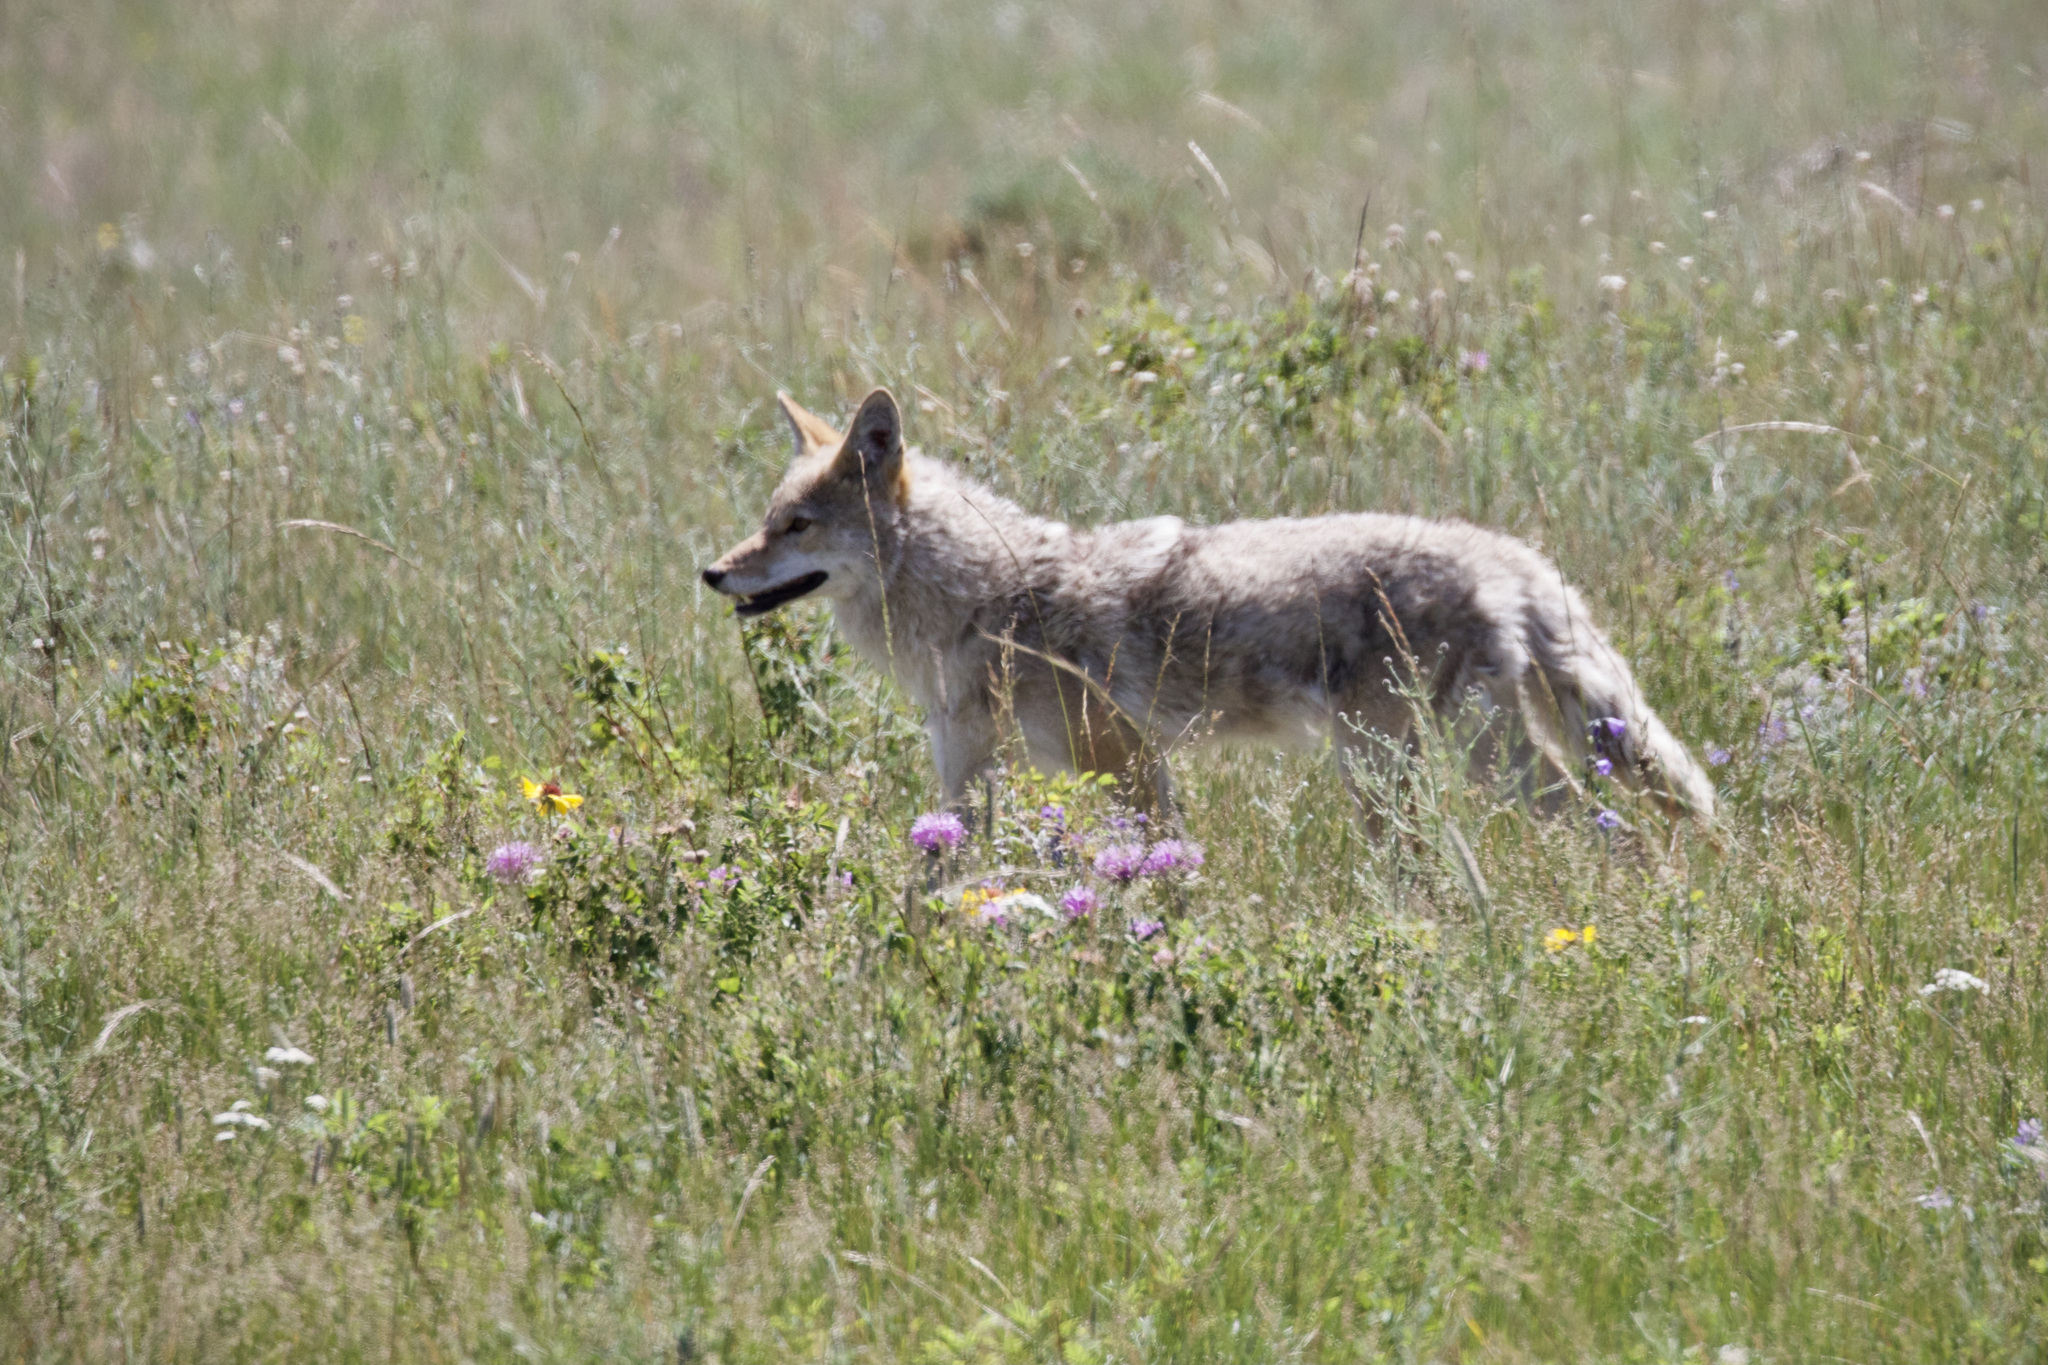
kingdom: Animalia
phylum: Chordata
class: Mammalia
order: Carnivora
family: Canidae
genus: Canis
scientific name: Canis latrans
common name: Coyote
